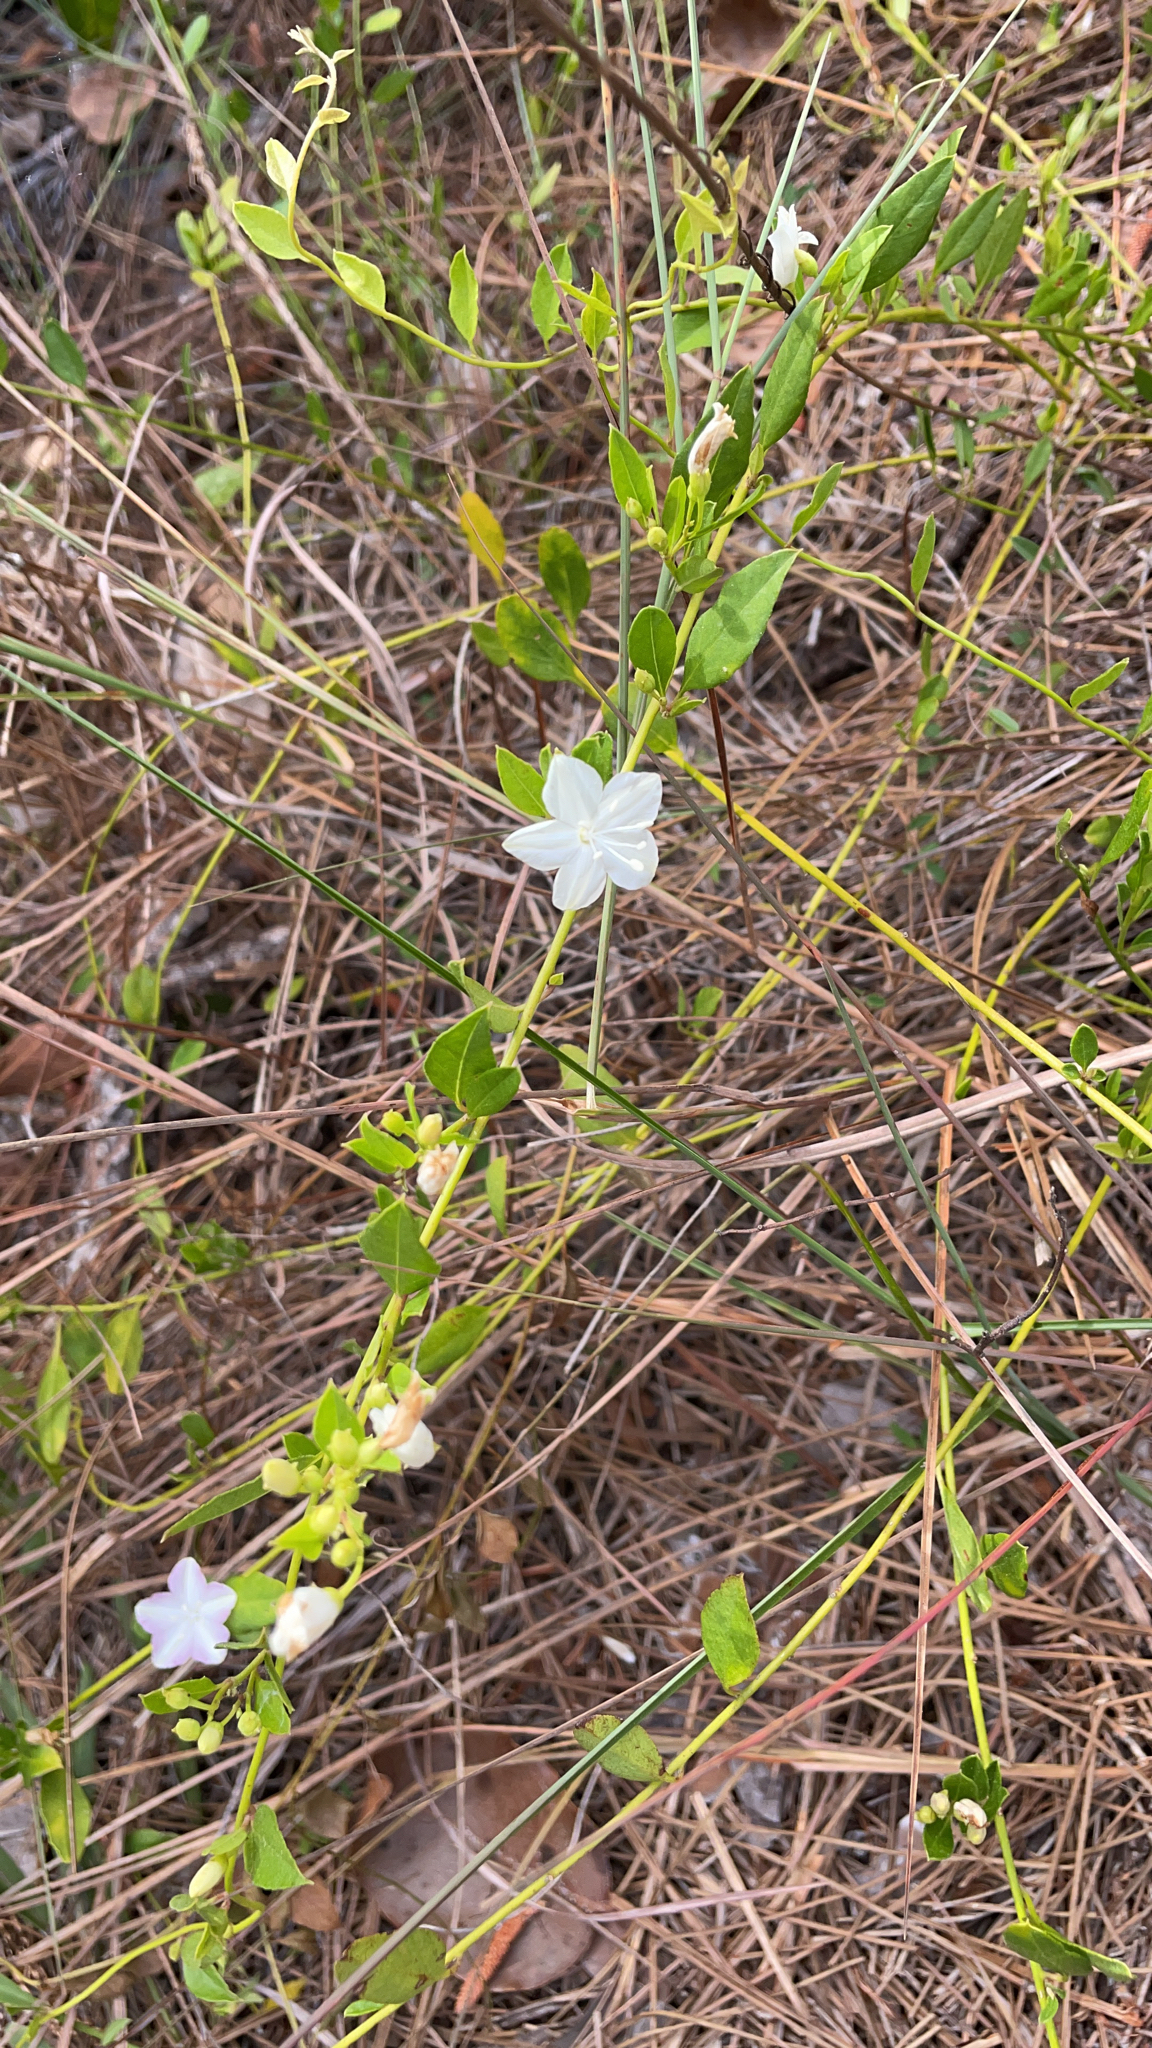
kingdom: Plantae
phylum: Tracheophyta
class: Magnoliopsida
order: Solanales
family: Convolvulaceae
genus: Jacquemontia
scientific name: Jacquemontia curtissii
